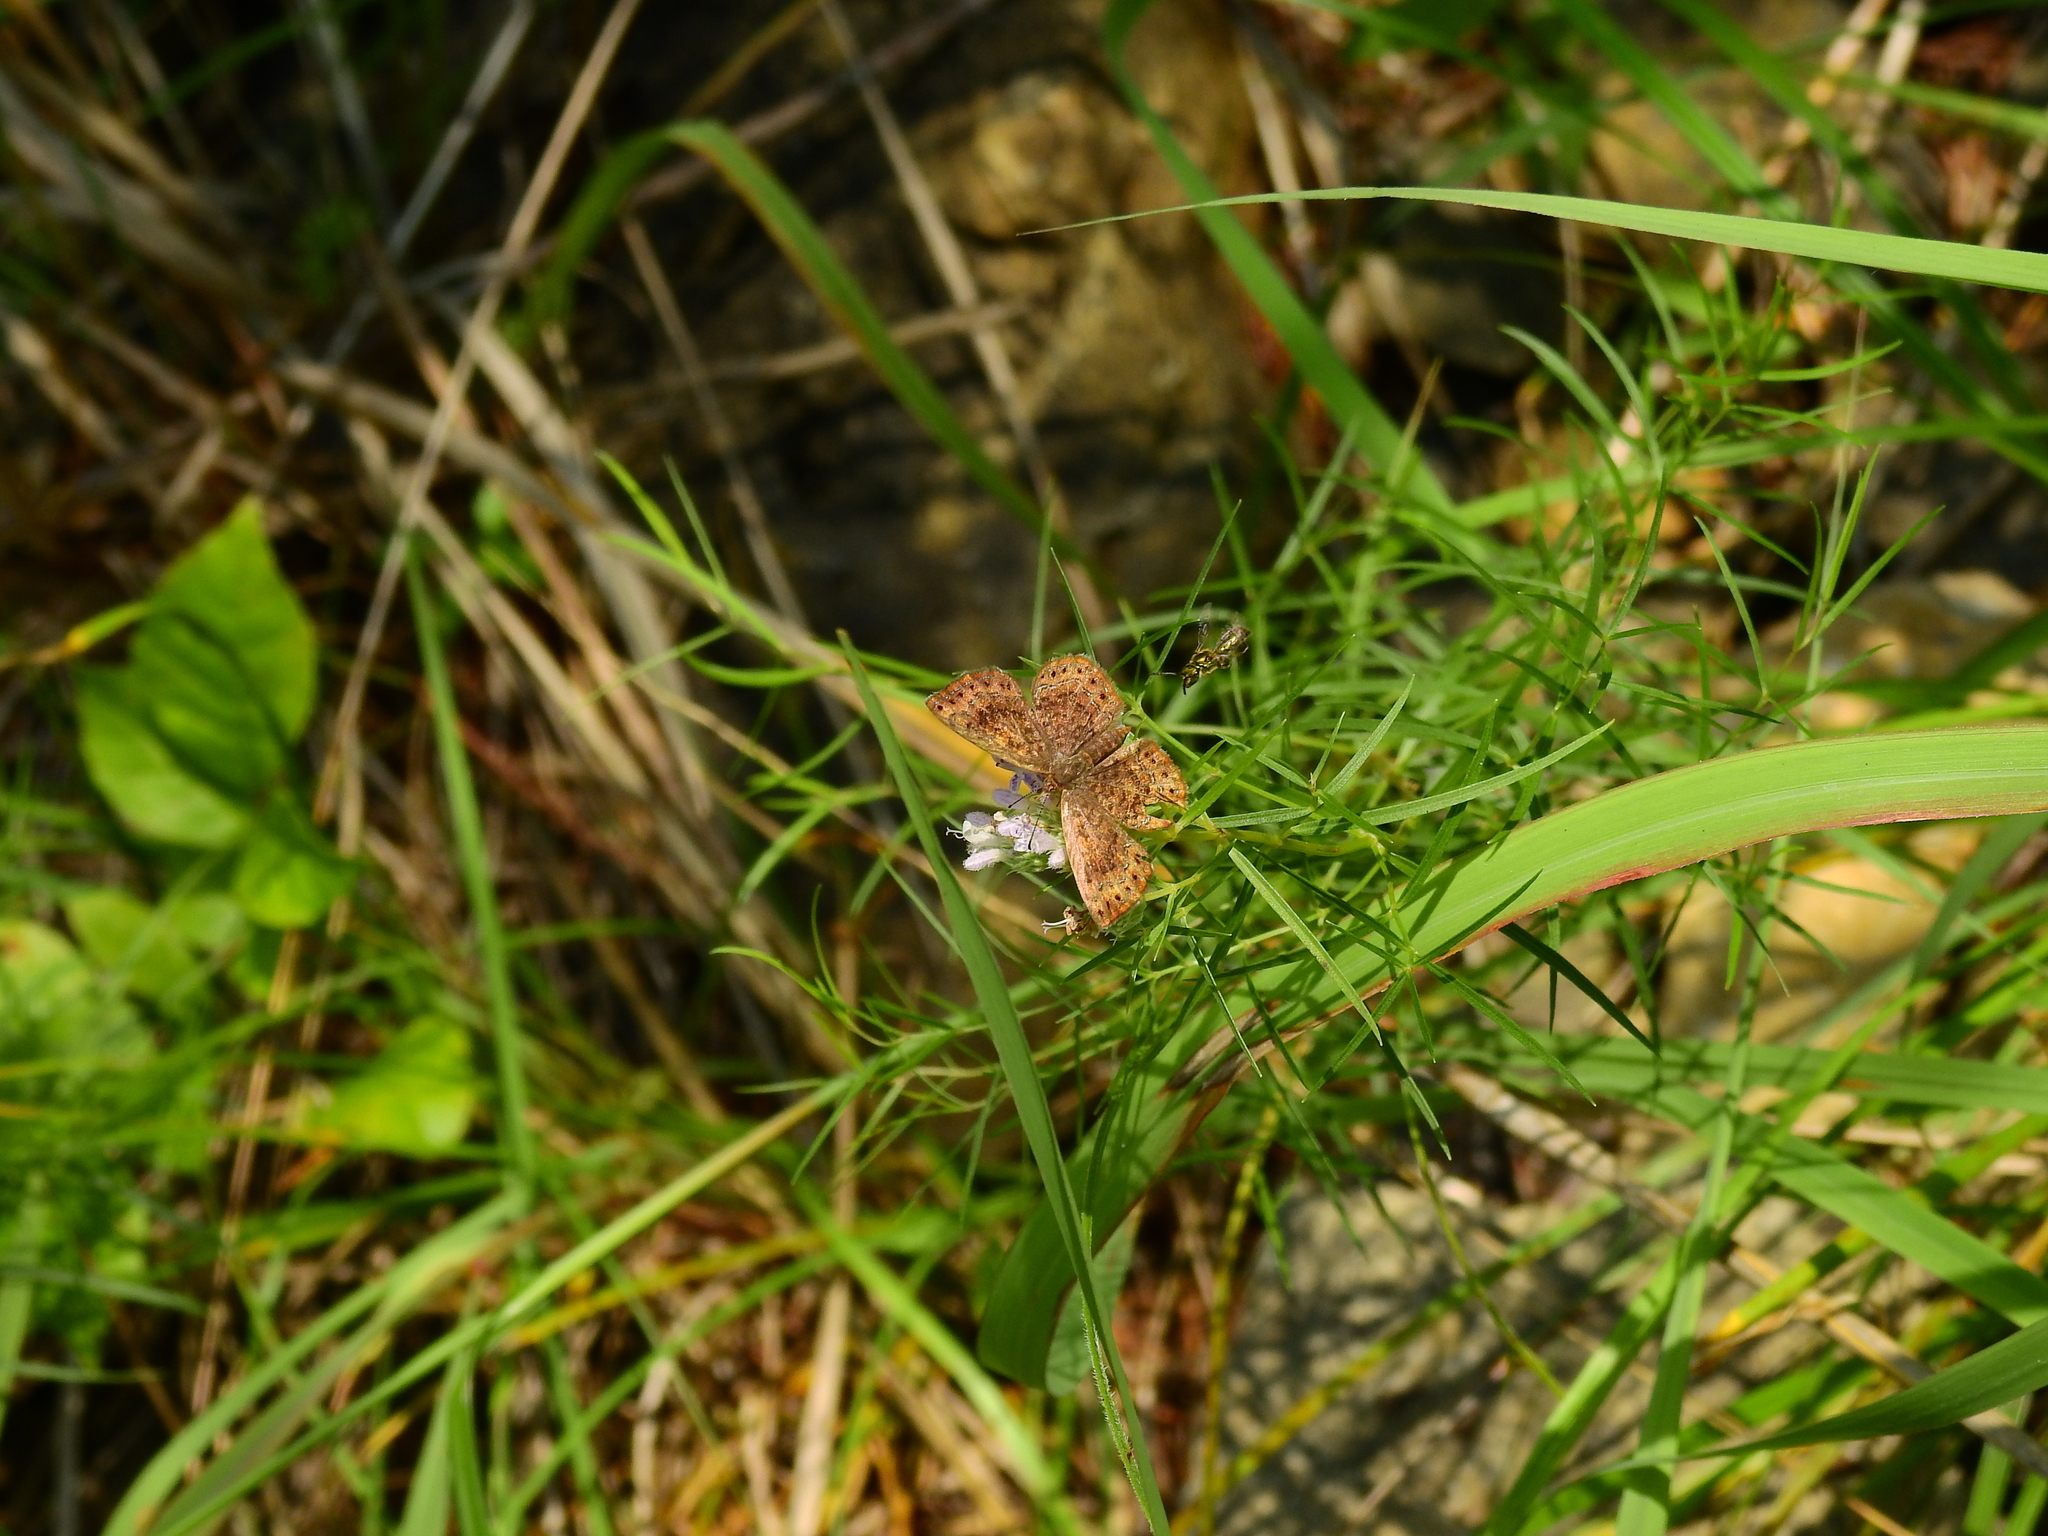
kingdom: Animalia
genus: Calephelis
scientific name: Calephelis borealis
